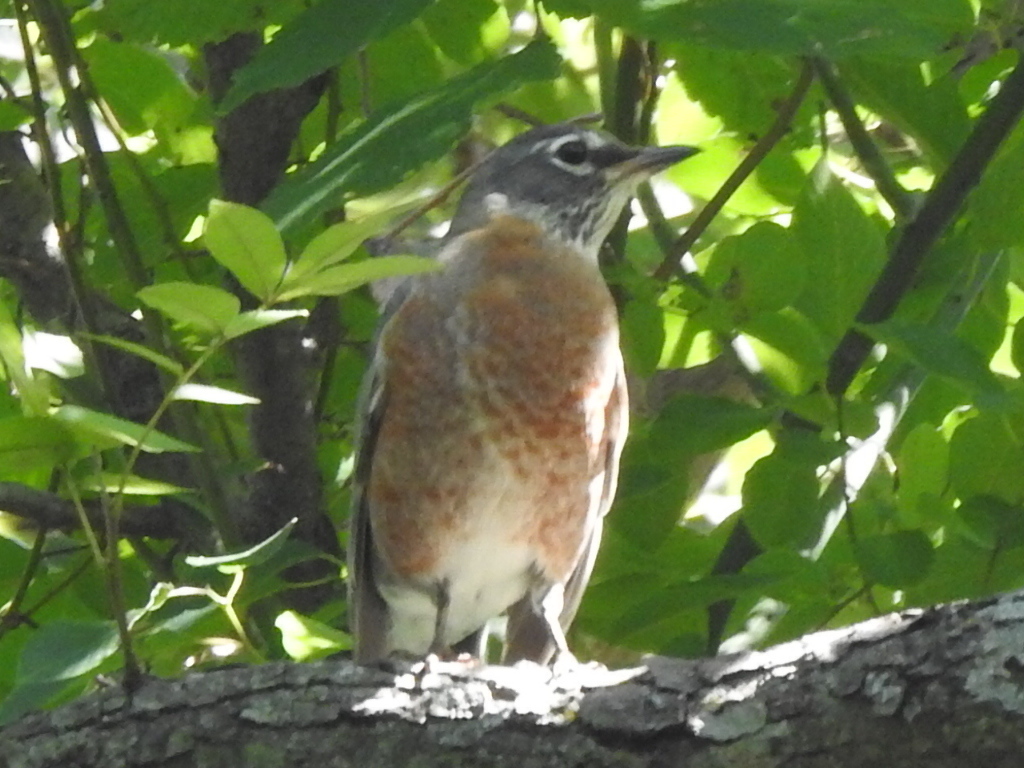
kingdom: Animalia
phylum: Chordata
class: Aves
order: Passeriformes
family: Turdidae
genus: Turdus
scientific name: Turdus migratorius
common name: American robin
